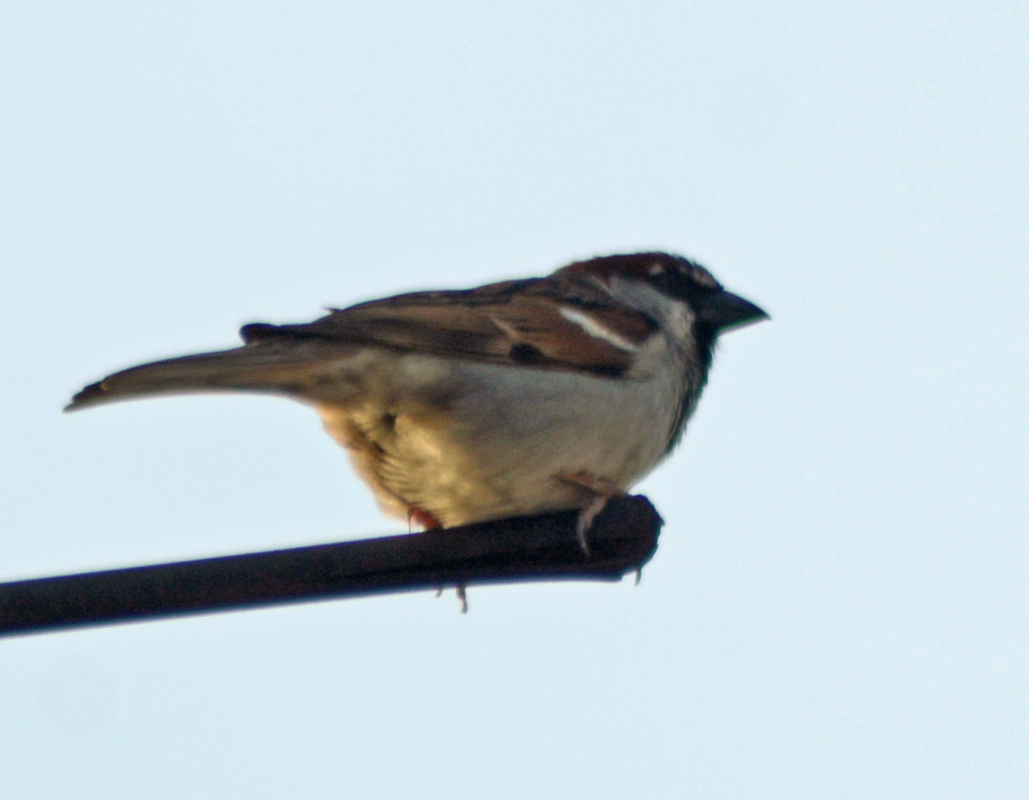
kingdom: Animalia
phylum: Chordata
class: Aves
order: Passeriformes
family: Passeridae
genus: Passer
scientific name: Passer domesticus
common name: House sparrow
